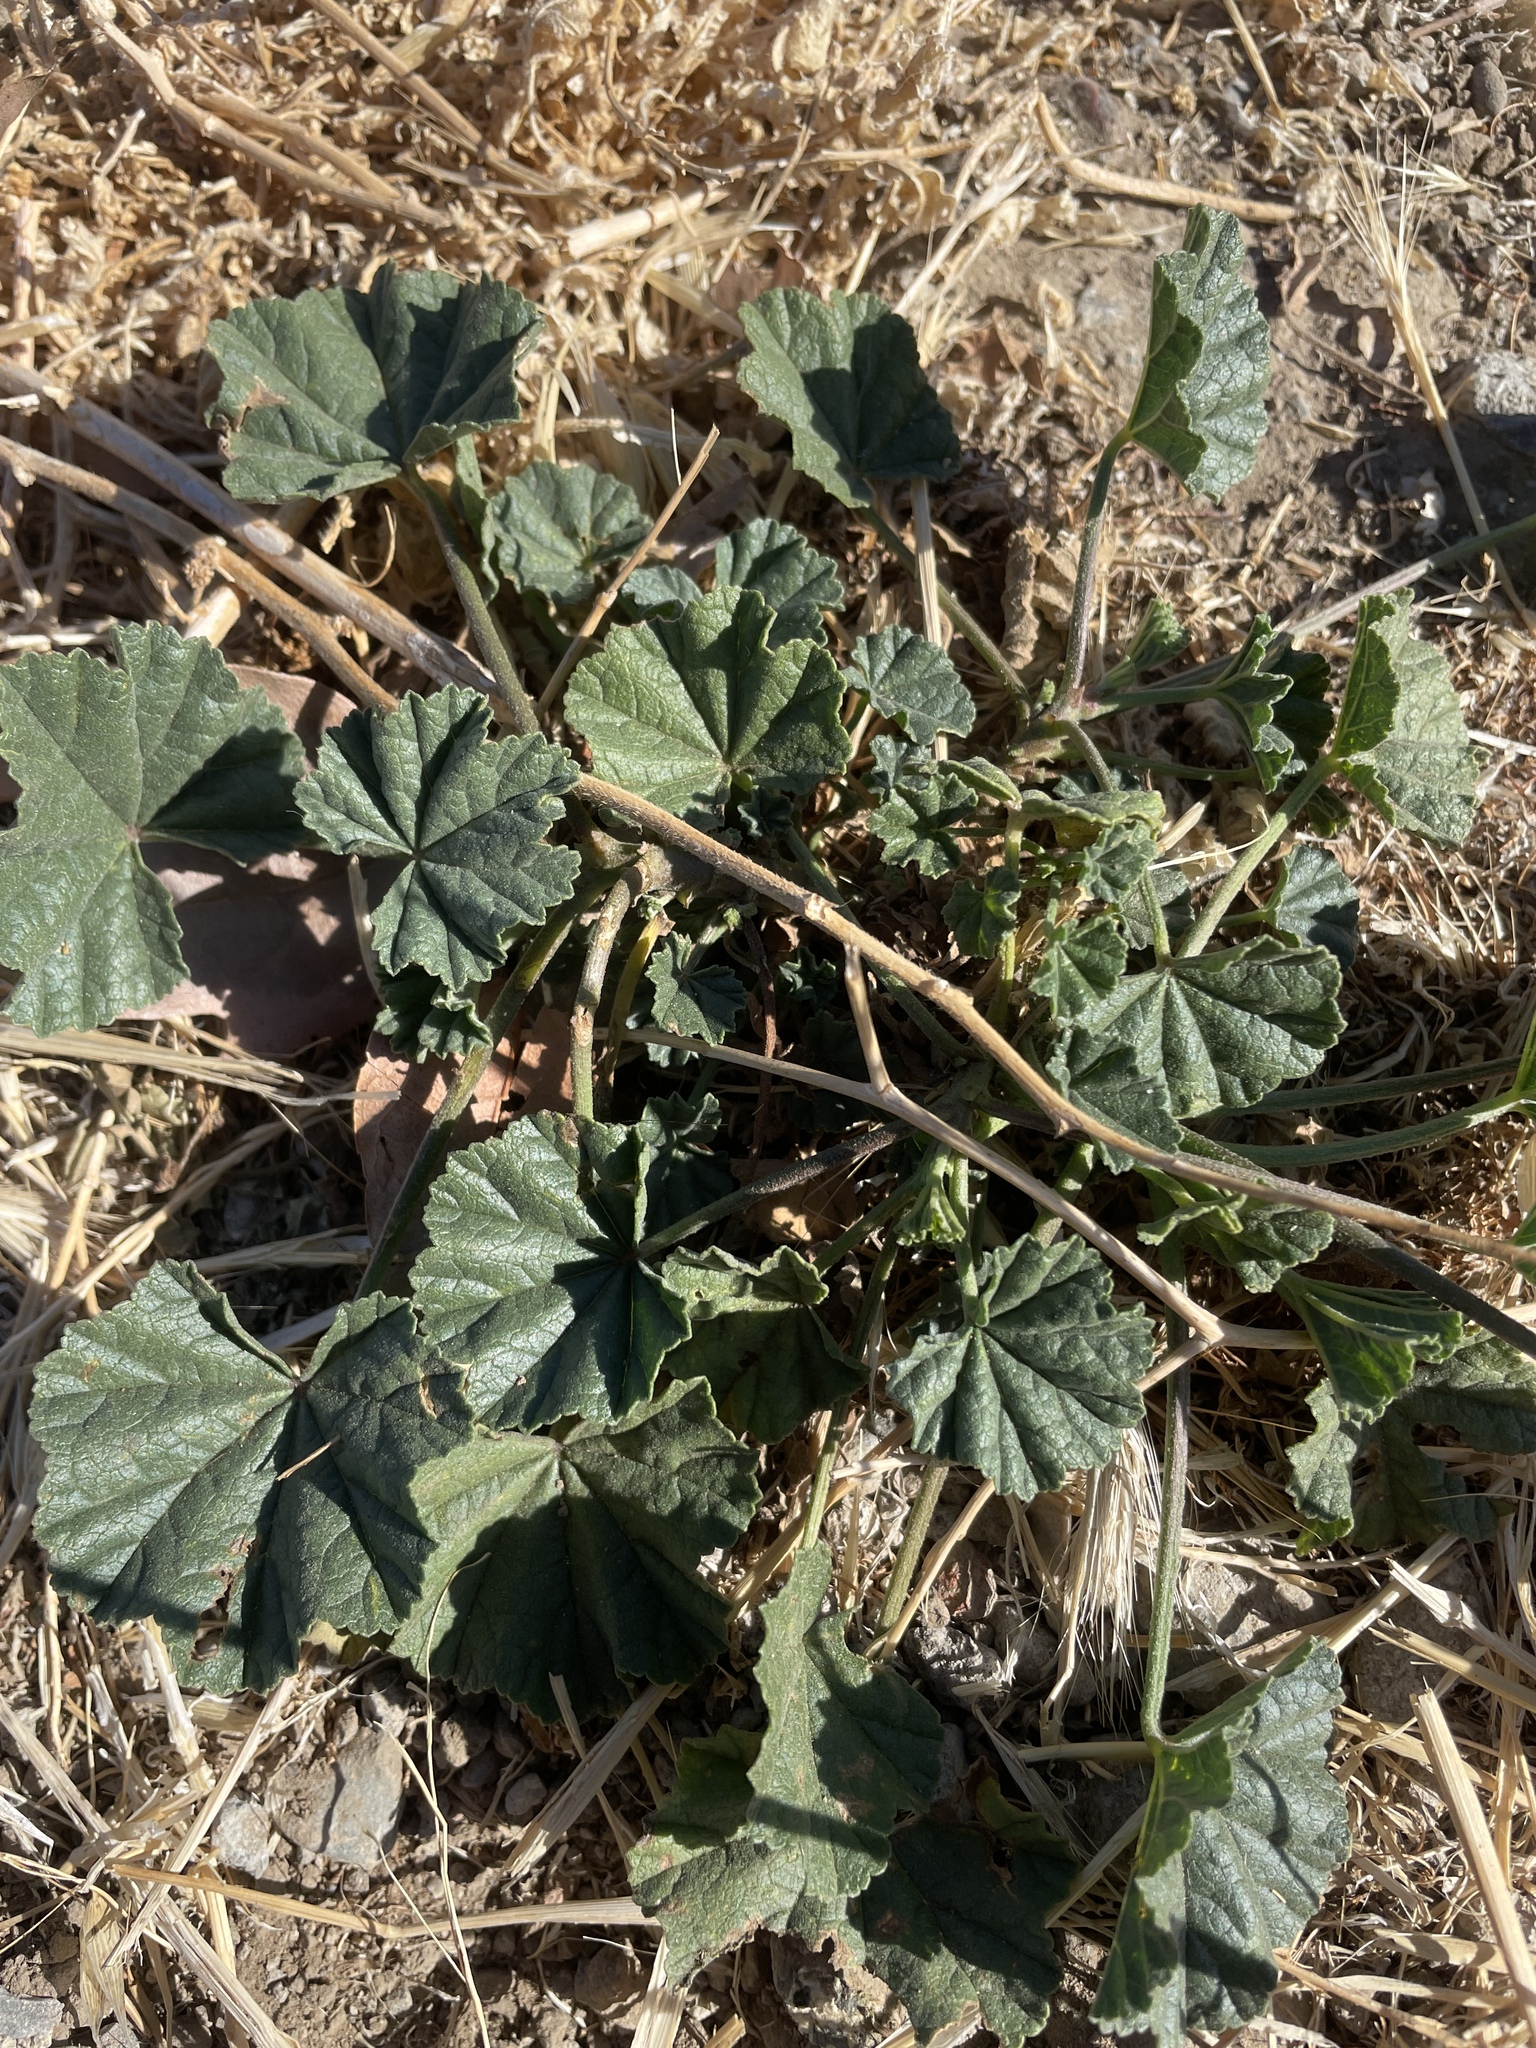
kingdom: Plantae
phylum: Tracheophyta
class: Magnoliopsida
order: Malvales
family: Malvaceae
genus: Malva
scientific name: Malva
